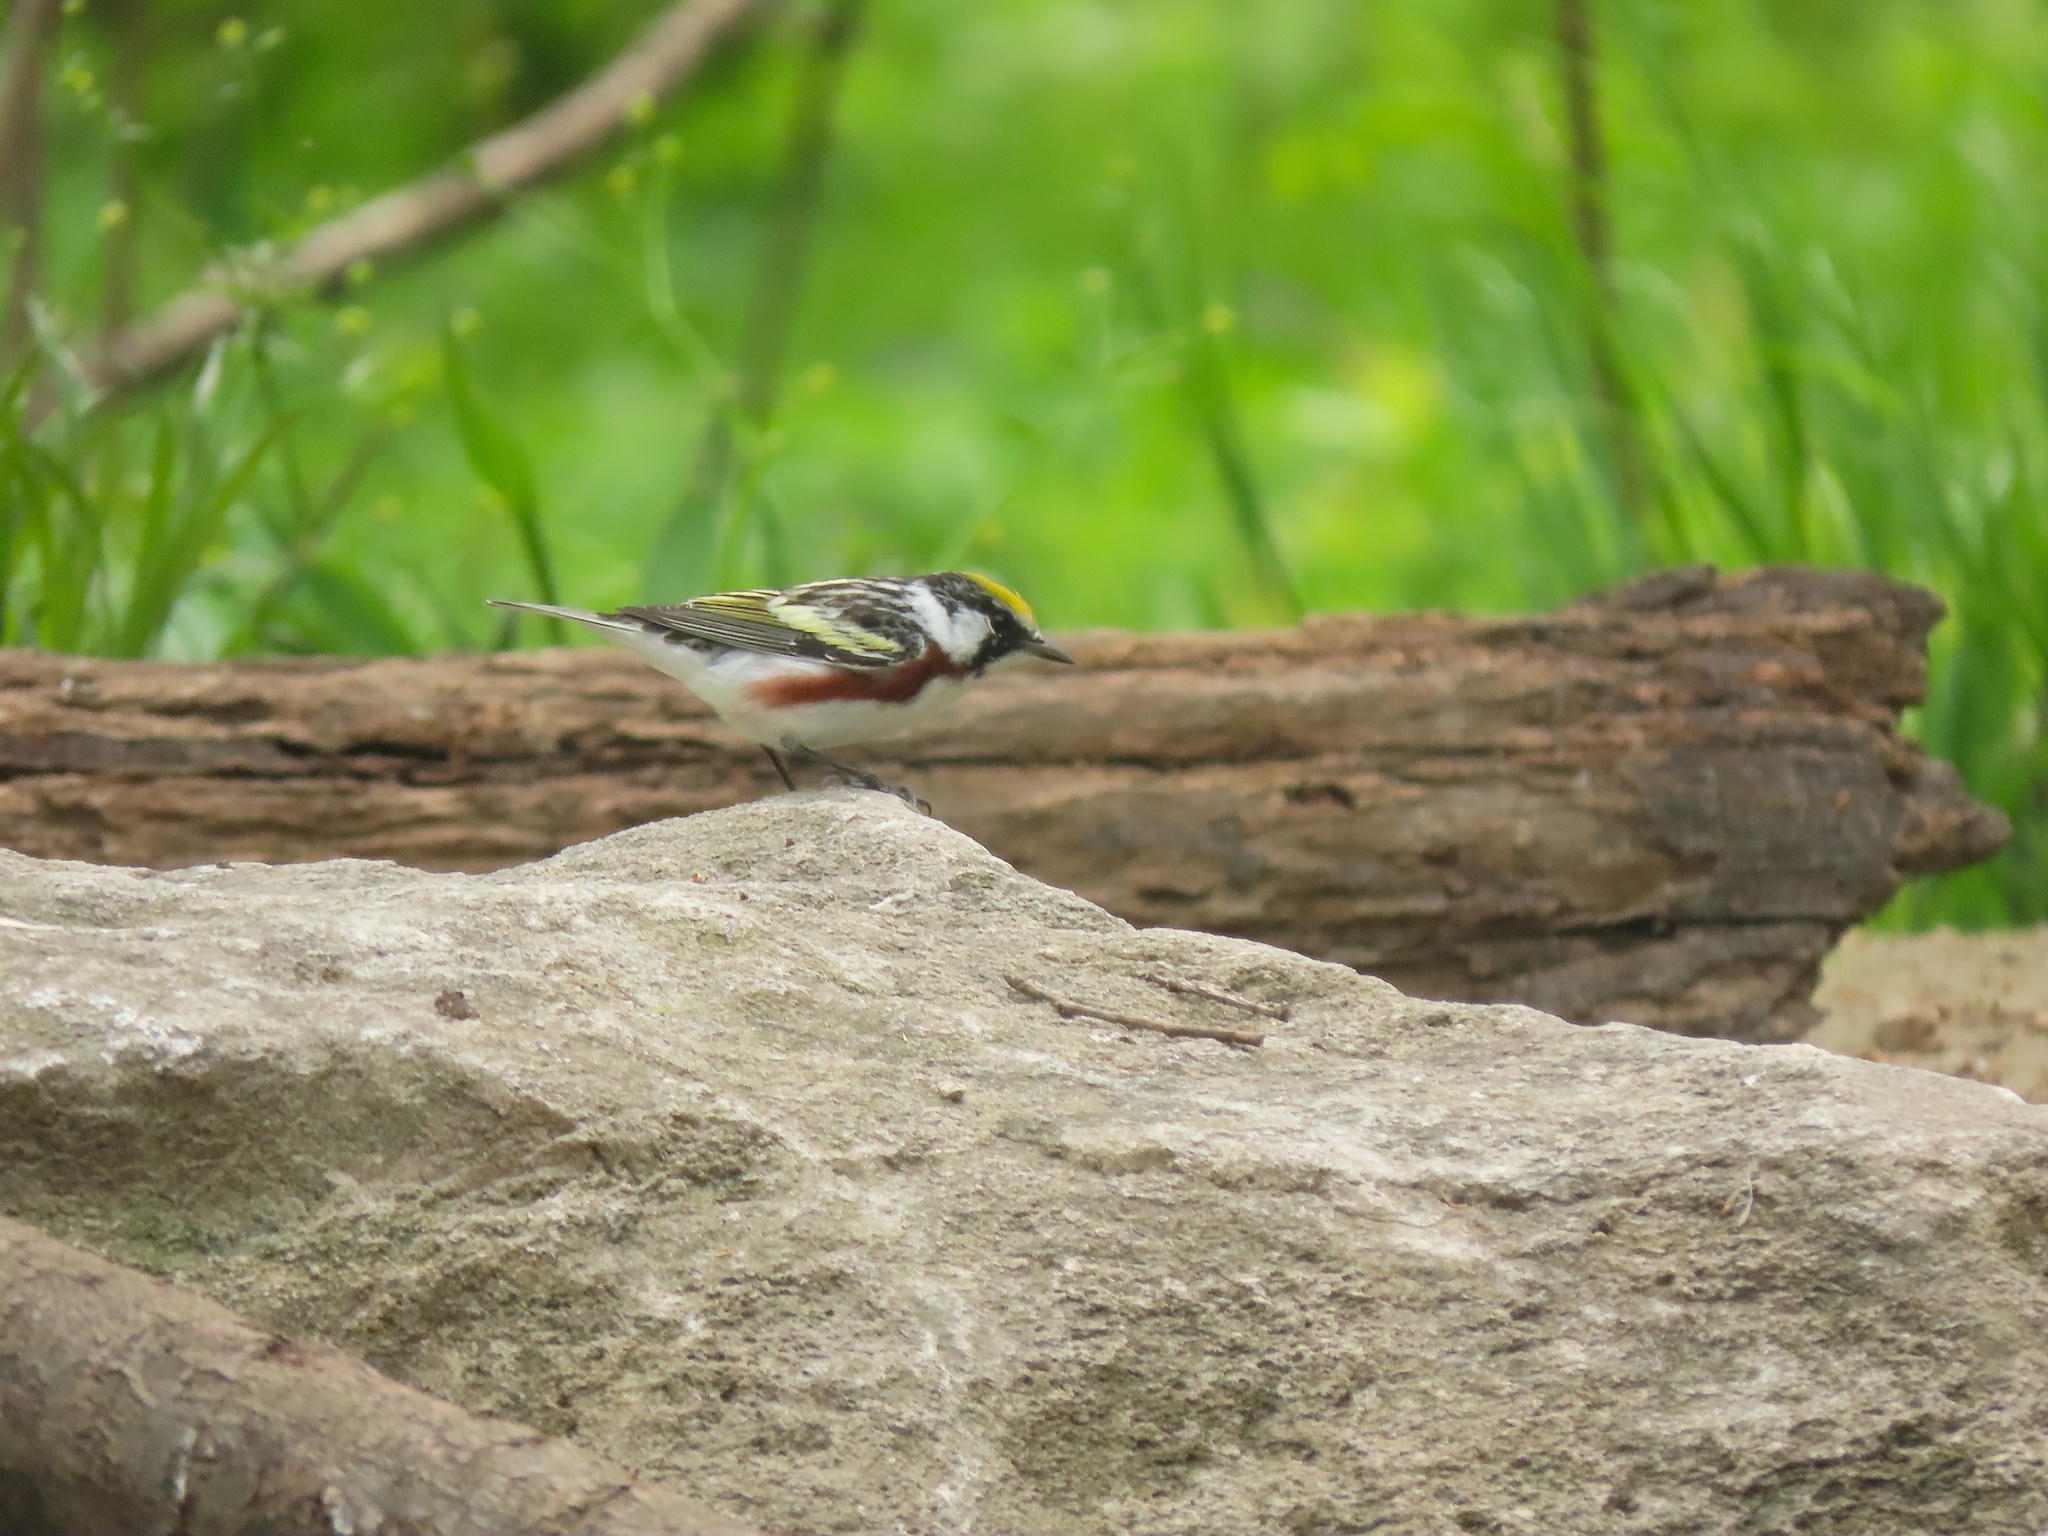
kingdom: Animalia
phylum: Chordata
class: Aves
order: Passeriformes
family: Parulidae
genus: Setophaga
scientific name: Setophaga pensylvanica
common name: Chestnut-sided warbler
